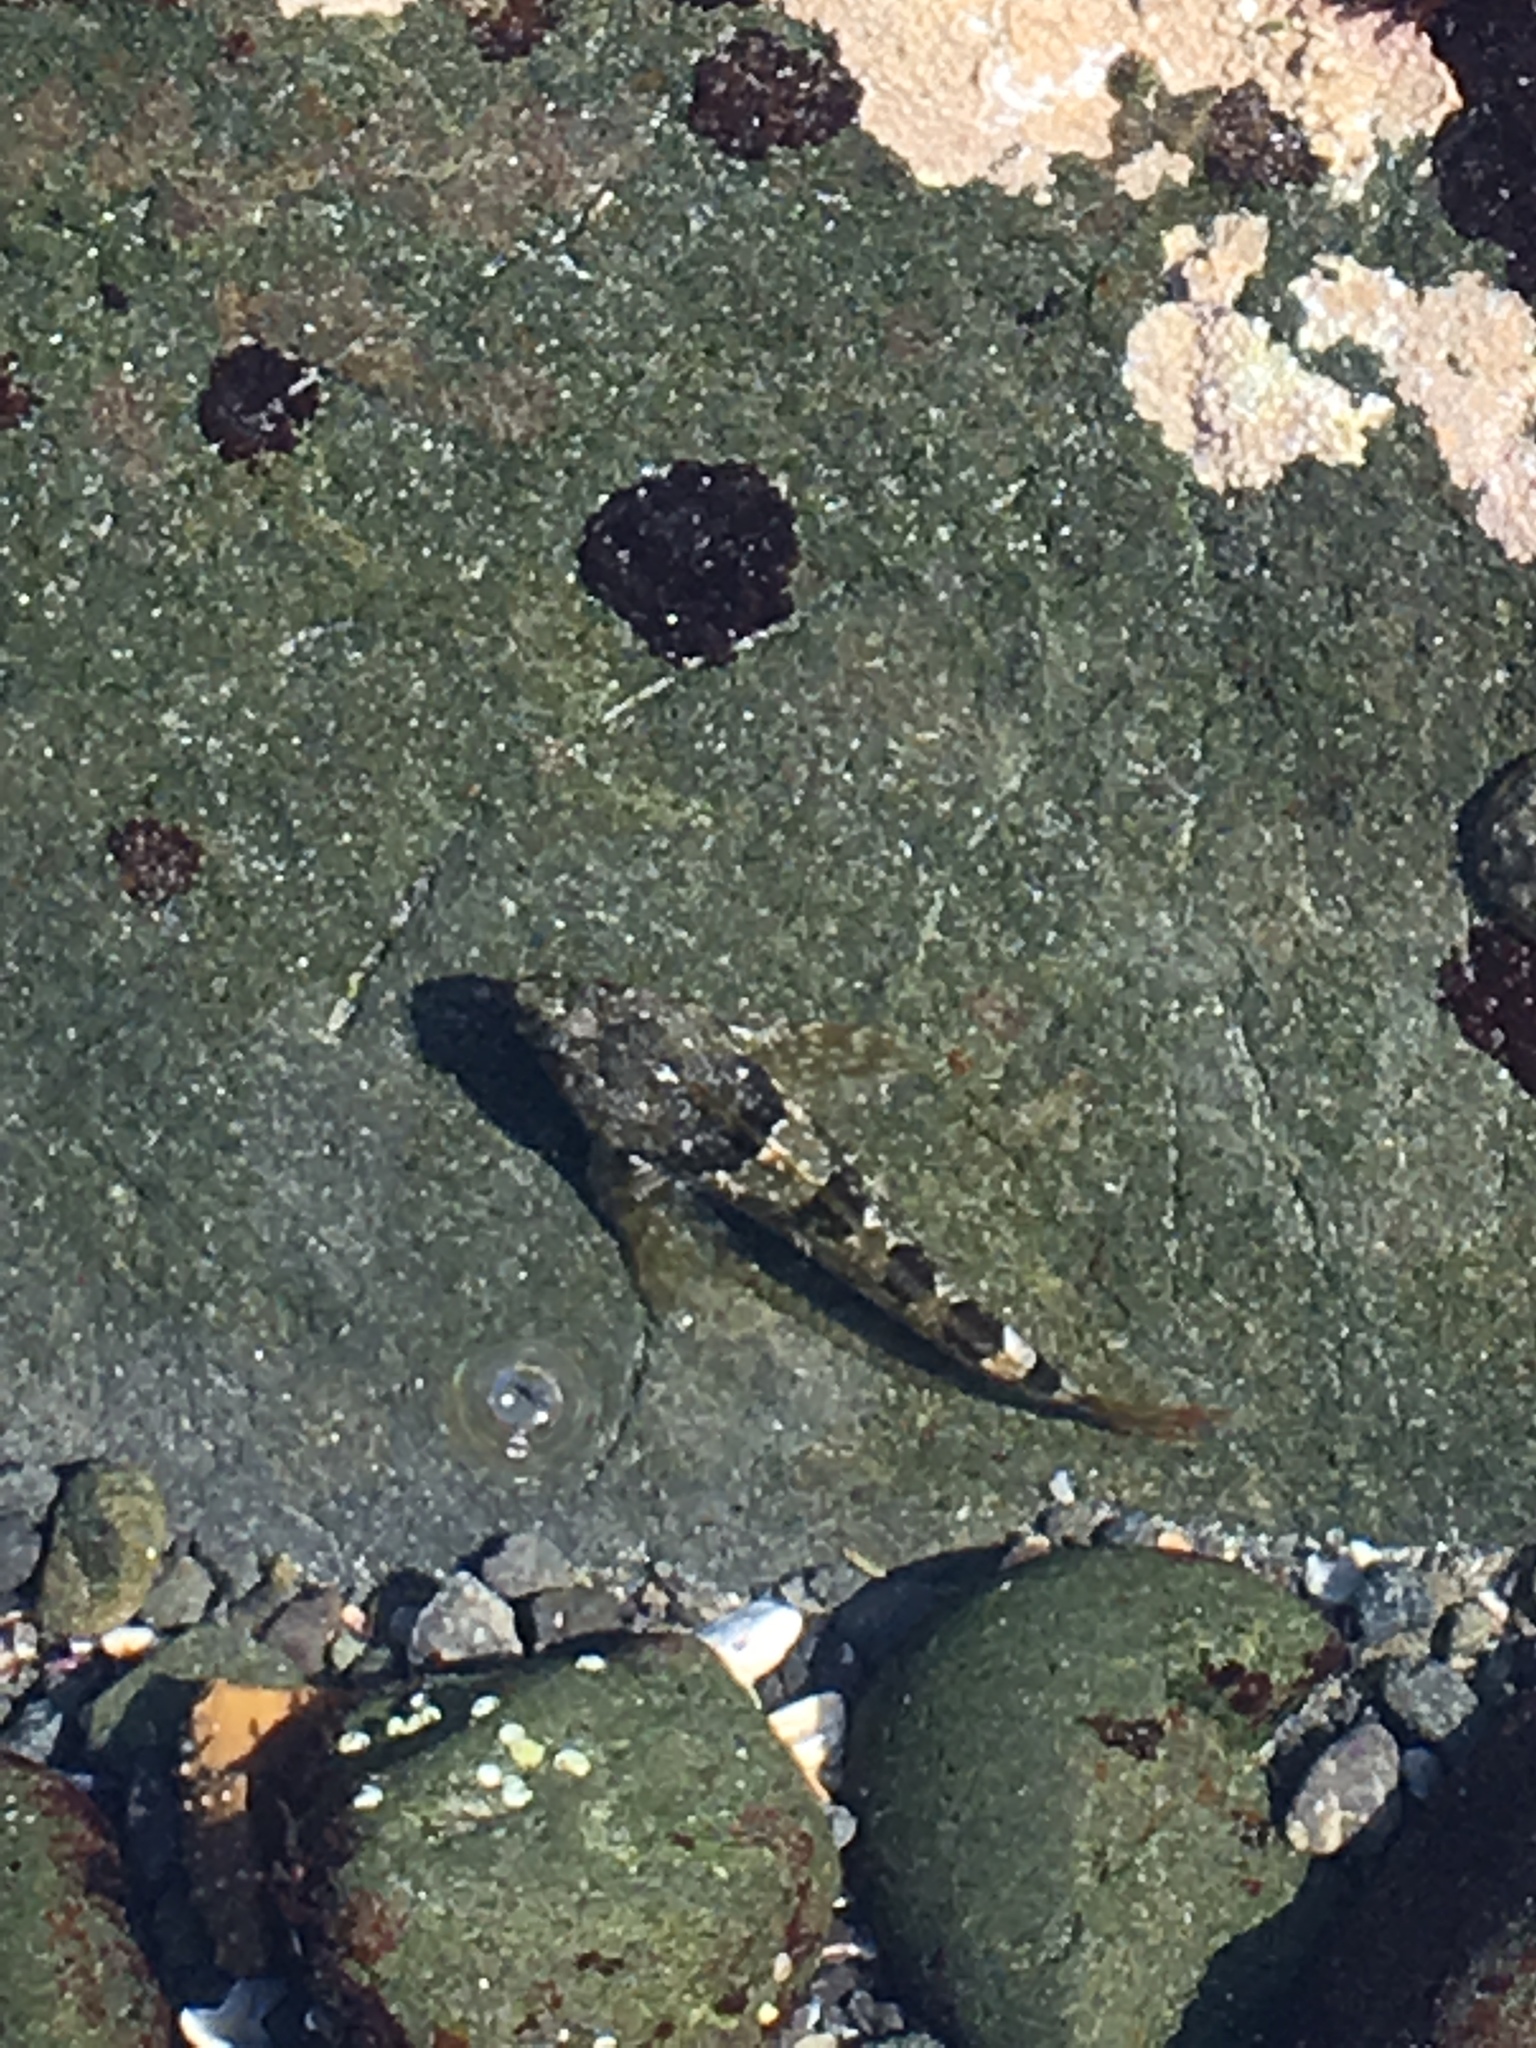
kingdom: Animalia
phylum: Chordata
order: Scorpaeniformes
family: Cottidae
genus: Oligocottus
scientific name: Oligocottus maculosus
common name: Tidepool sculpin
